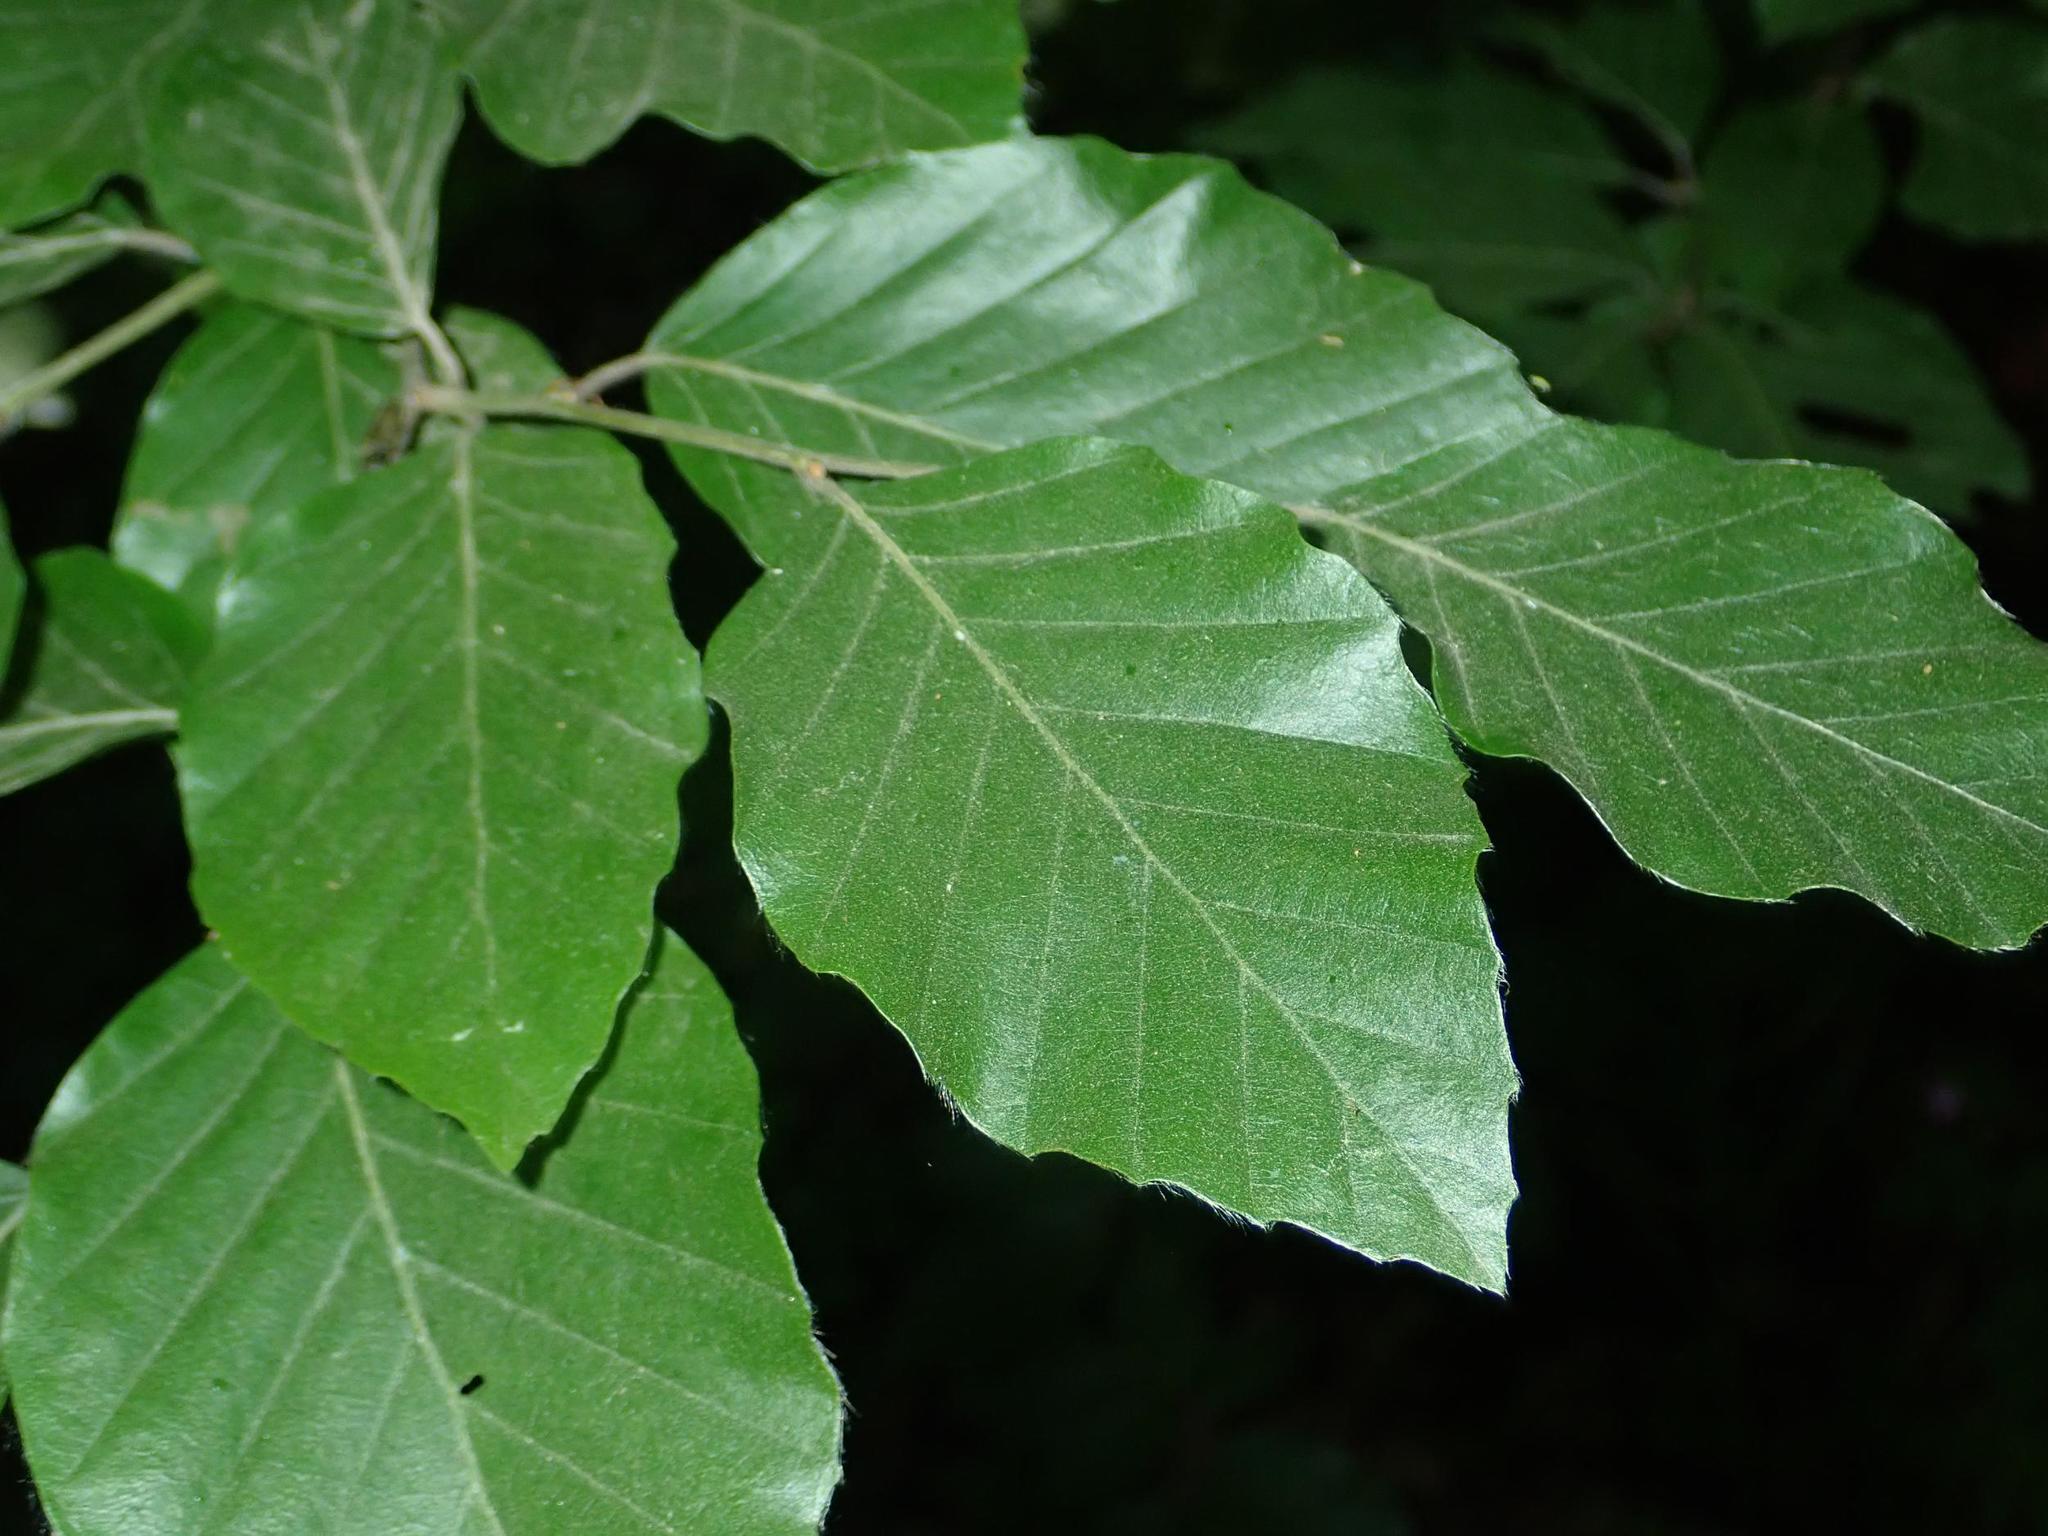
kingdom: Plantae
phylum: Tracheophyta
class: Magnoliopsida
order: Fagales
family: Fagaceae
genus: Fagus
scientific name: Fagus sylvatica
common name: Beech
